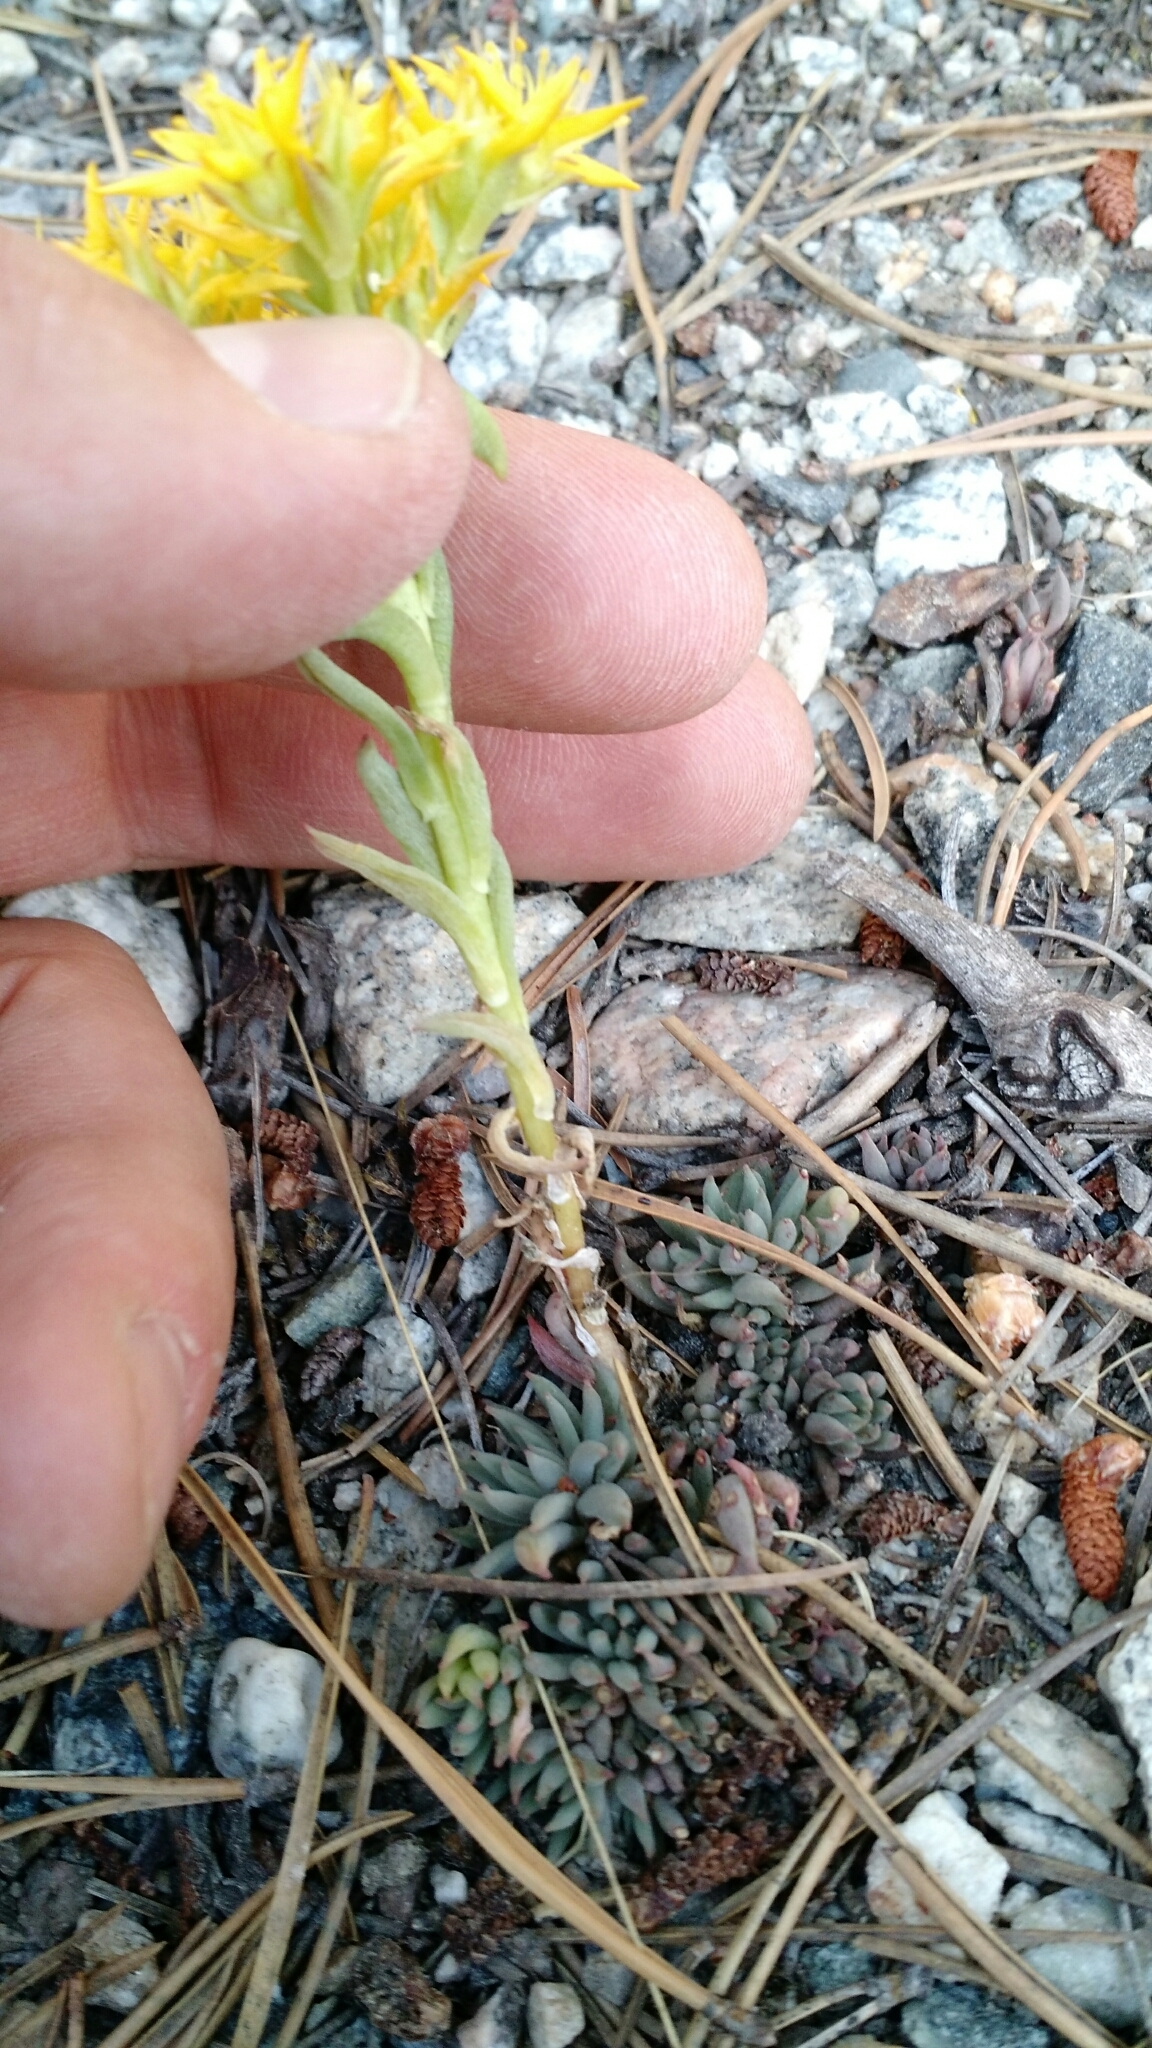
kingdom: Plantae
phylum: Tracheophyta
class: Magnoliopsida
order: Saxifragales
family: Crassulaceae
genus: Sedum
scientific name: Sedum lanceolatum
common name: Common stonecrop
